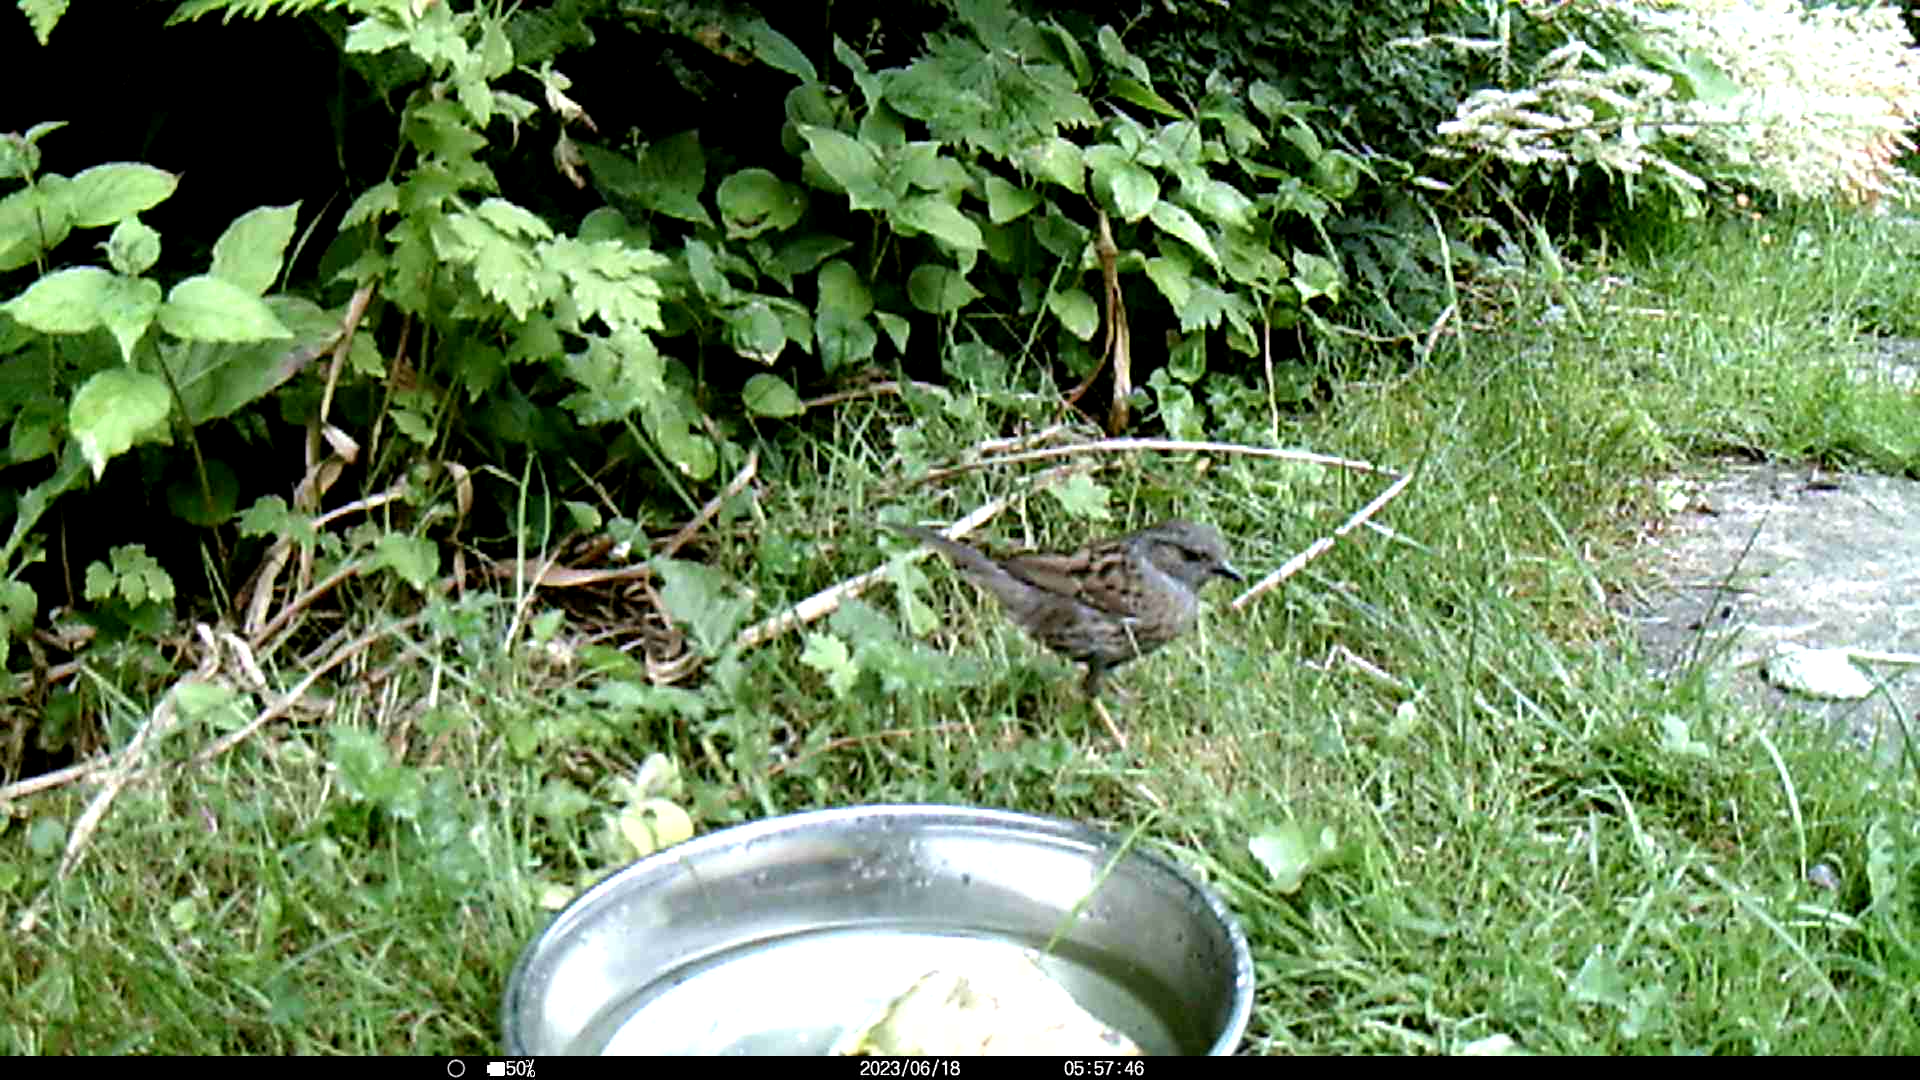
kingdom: Animalia
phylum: Chordata
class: Aves
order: Passeriformes
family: Prunellidae
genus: Prunella
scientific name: Prunella modularis
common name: Dunnock
